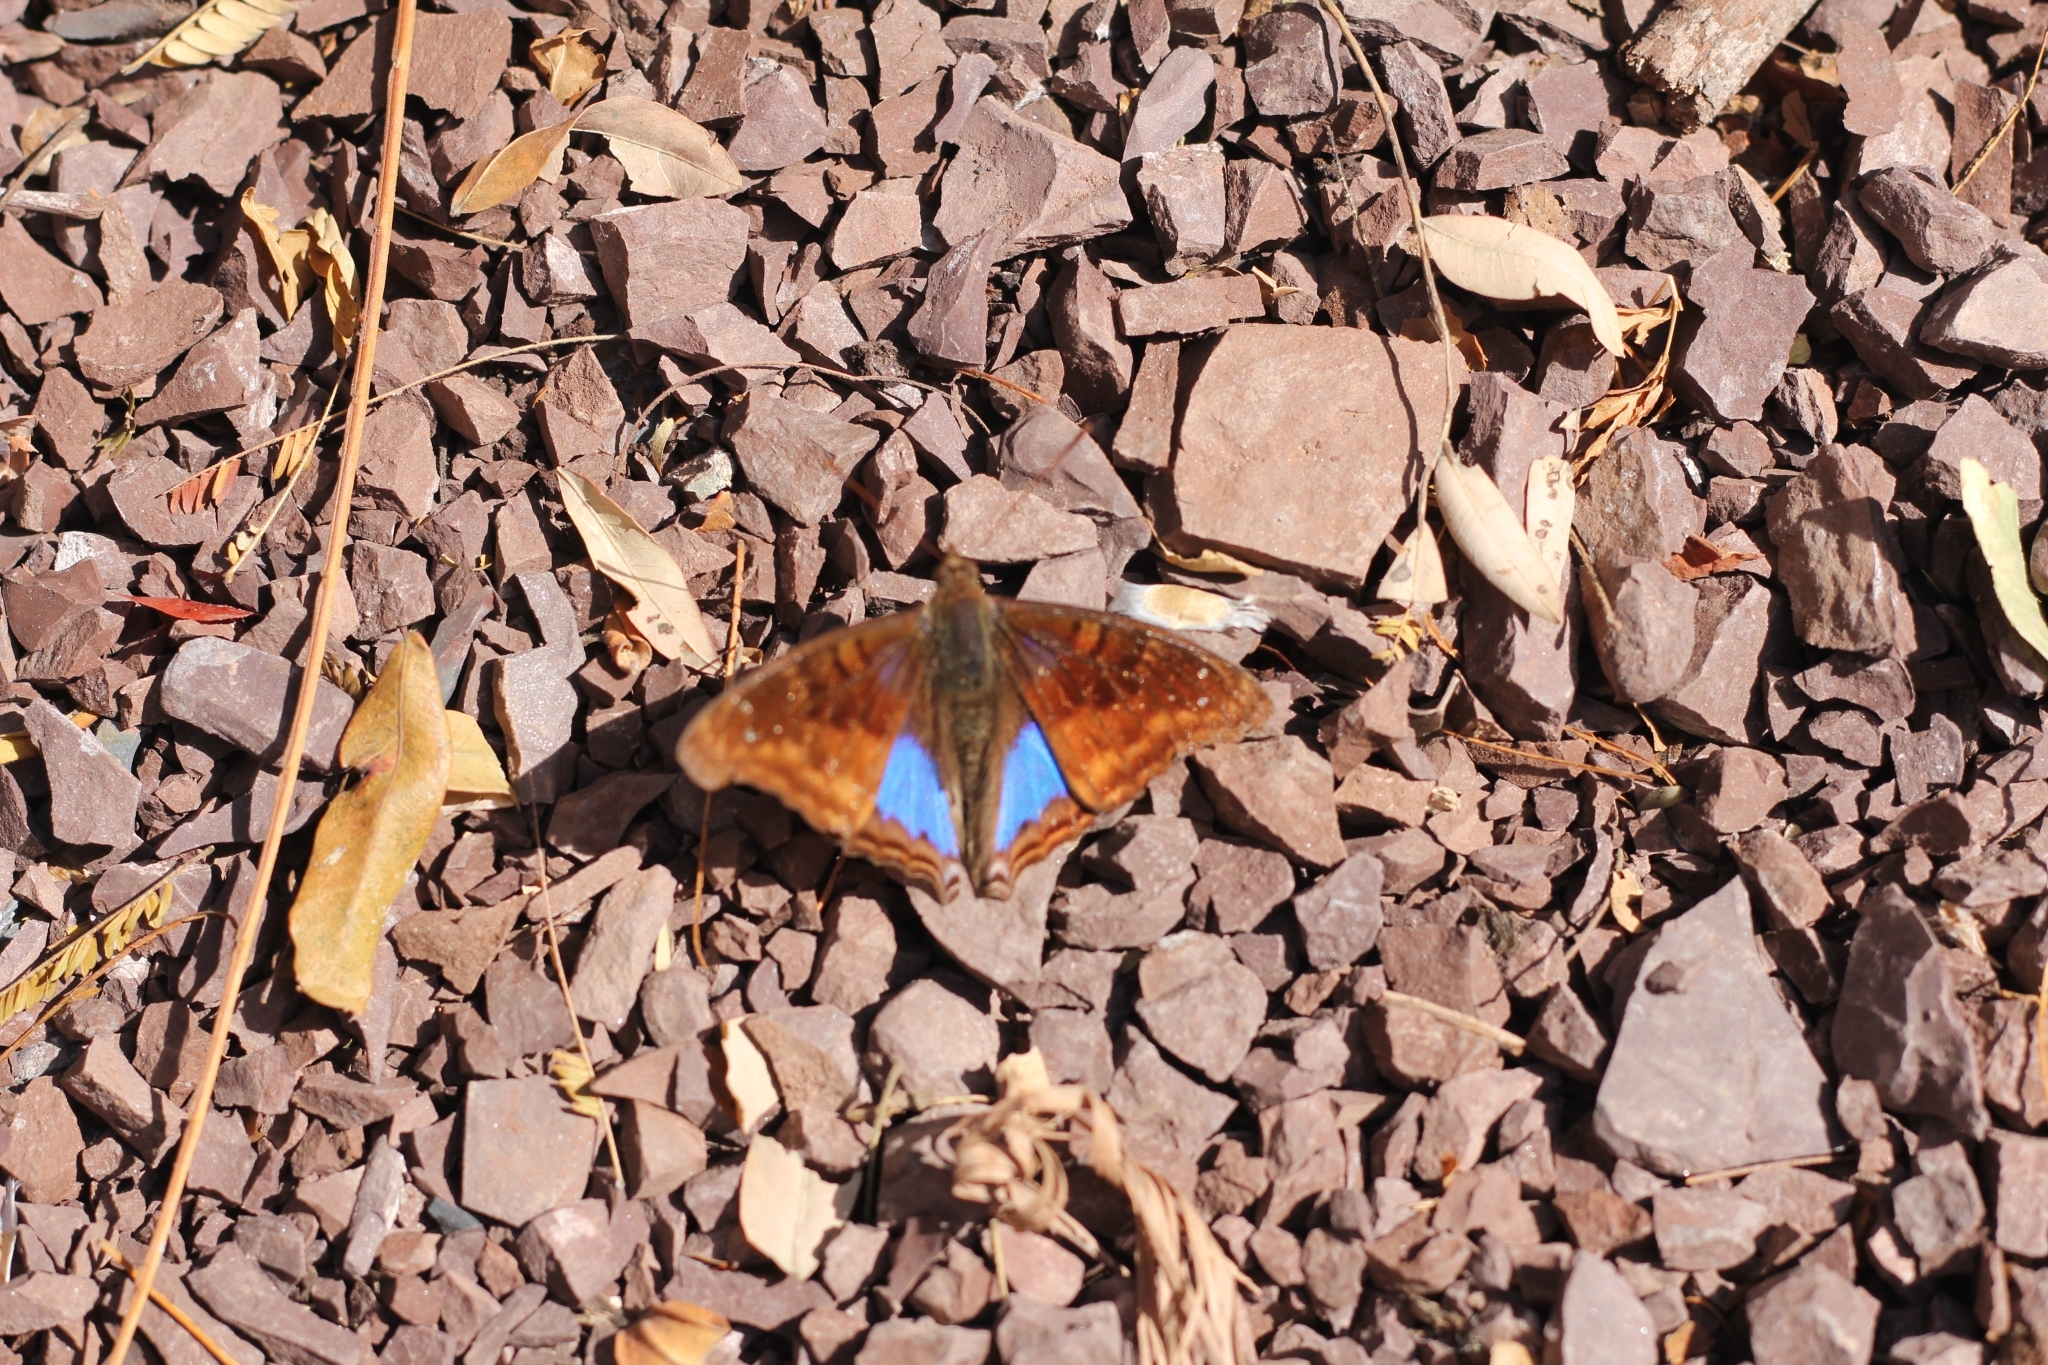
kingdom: Animalia
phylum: Arthropoda
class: Insecta
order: Lepidoptera
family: Nymphalidae
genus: Doxocopa
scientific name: Doxocopa cyane
